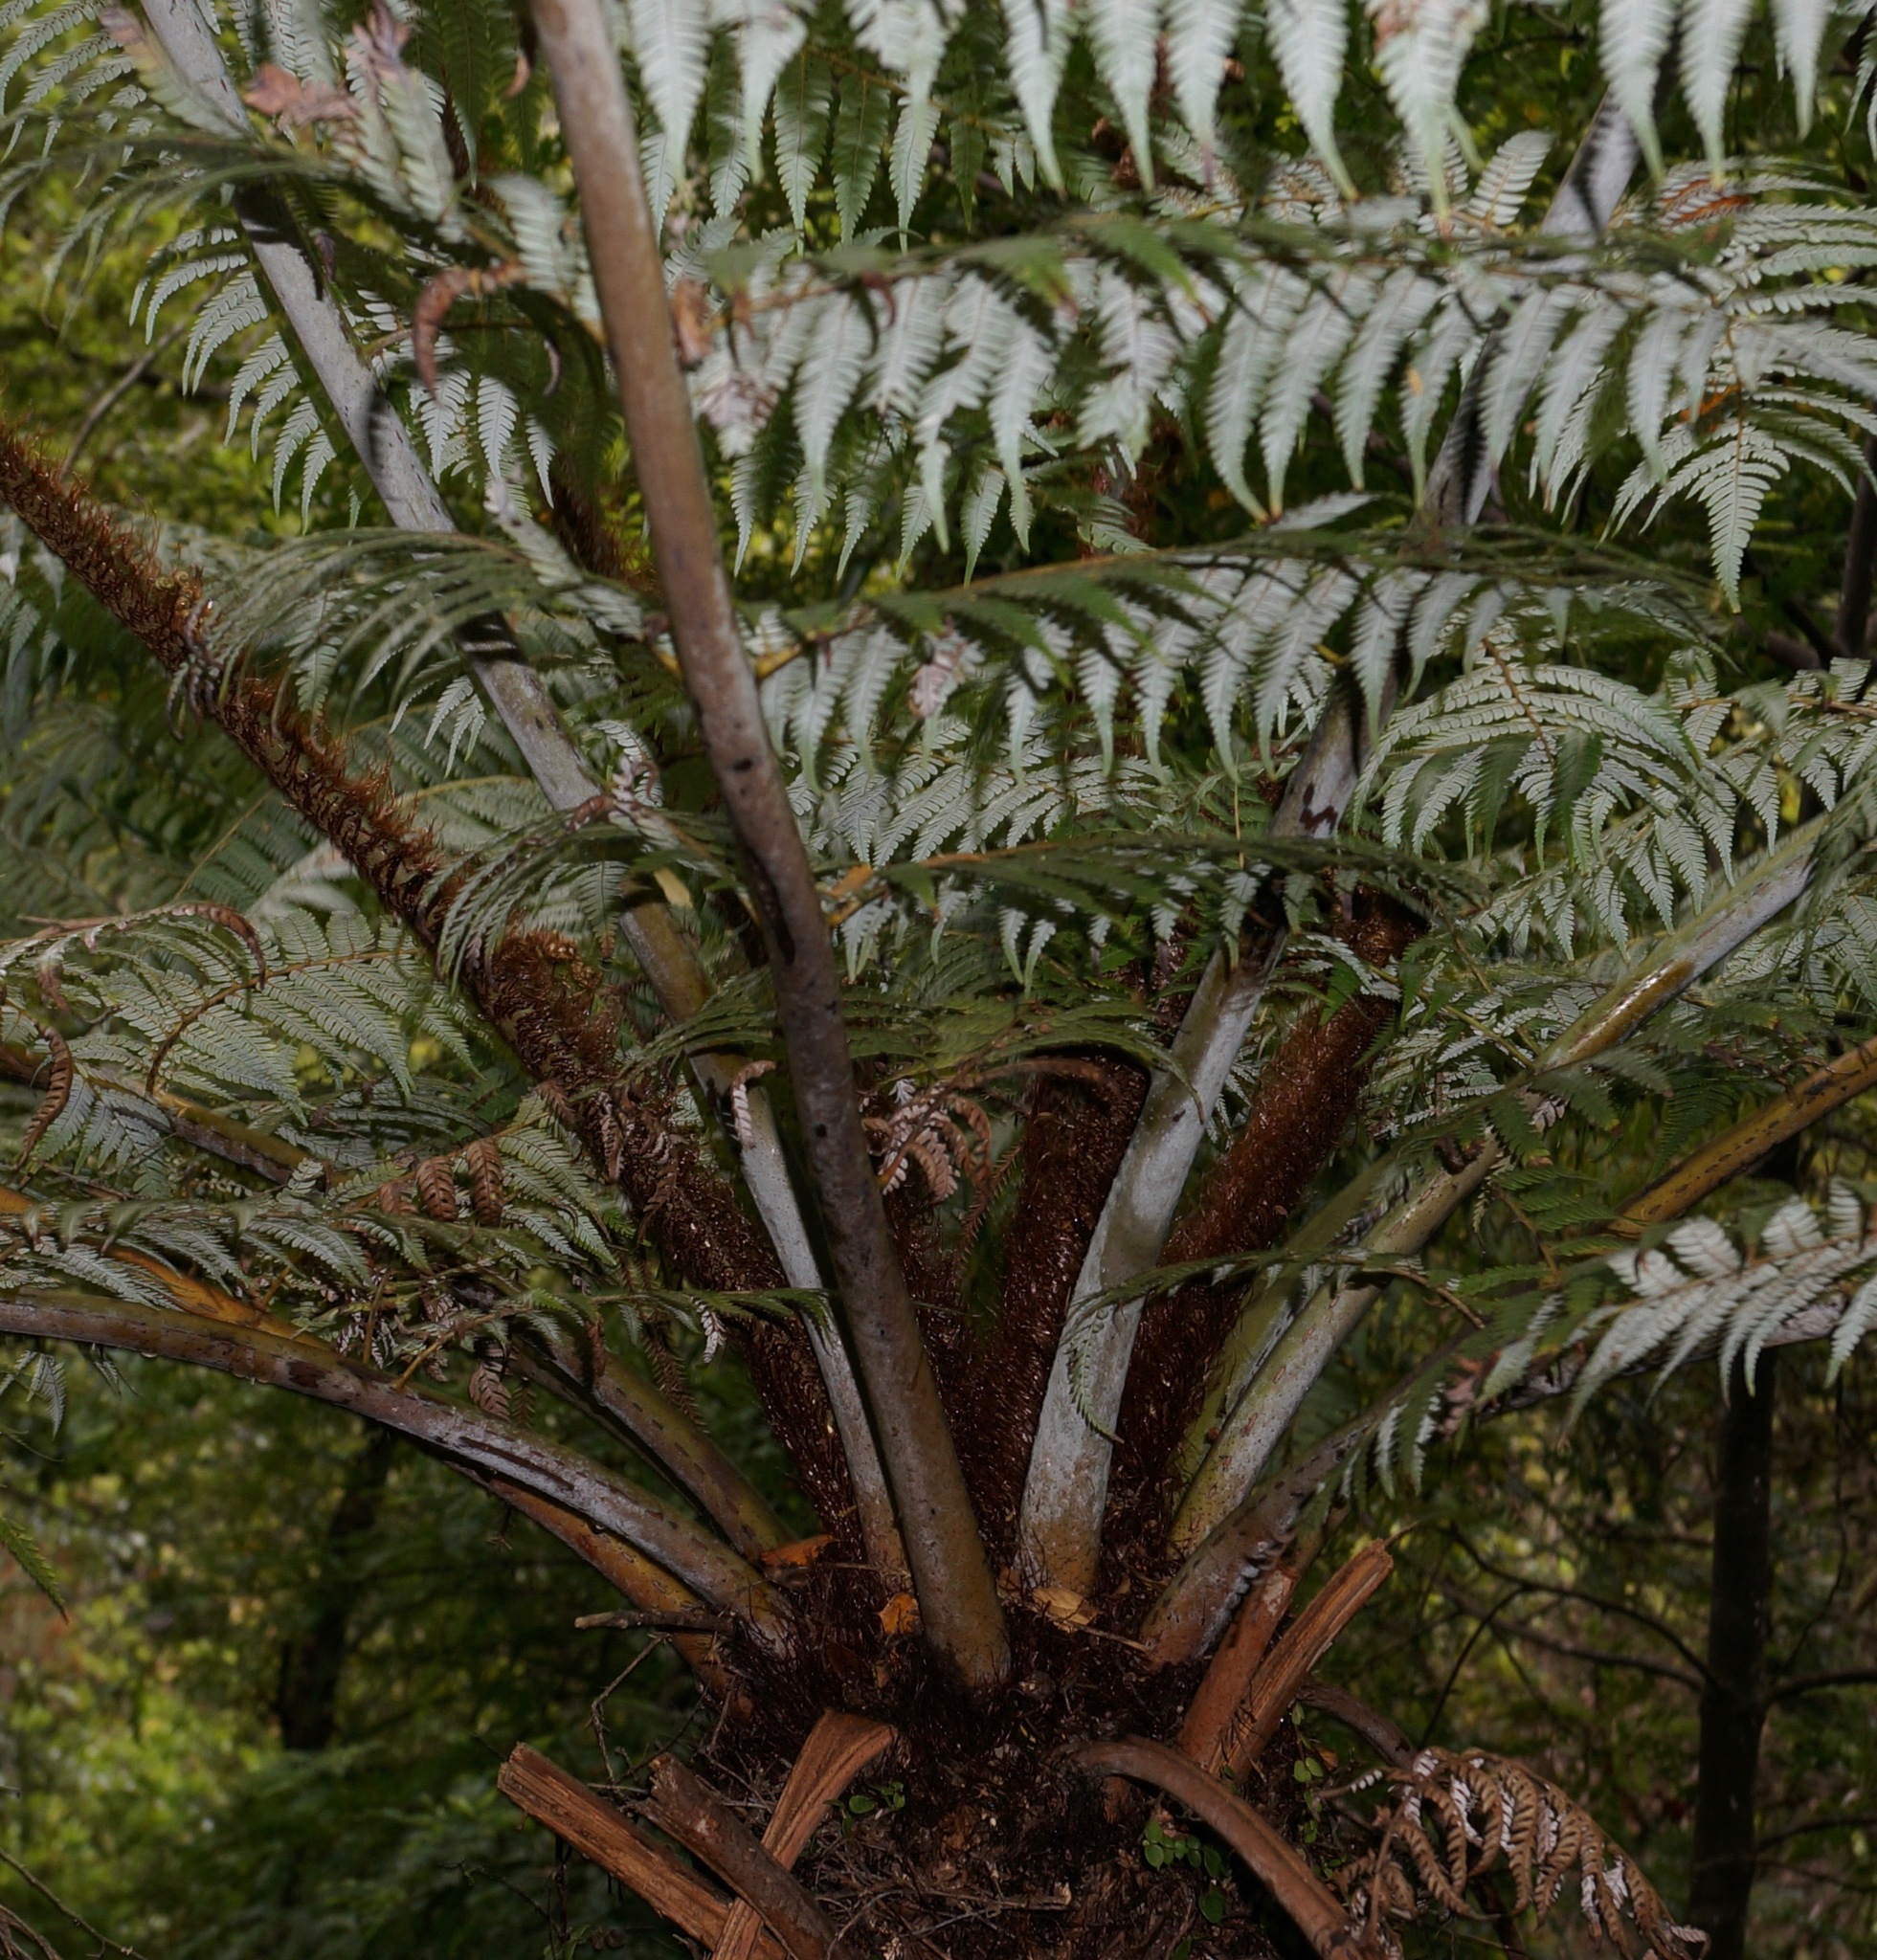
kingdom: Plantae
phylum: Tracheophyta
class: Polypodiopsida
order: Cyatheales
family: Cyatheaceae
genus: Alsophila
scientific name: Alsophila dealbata
